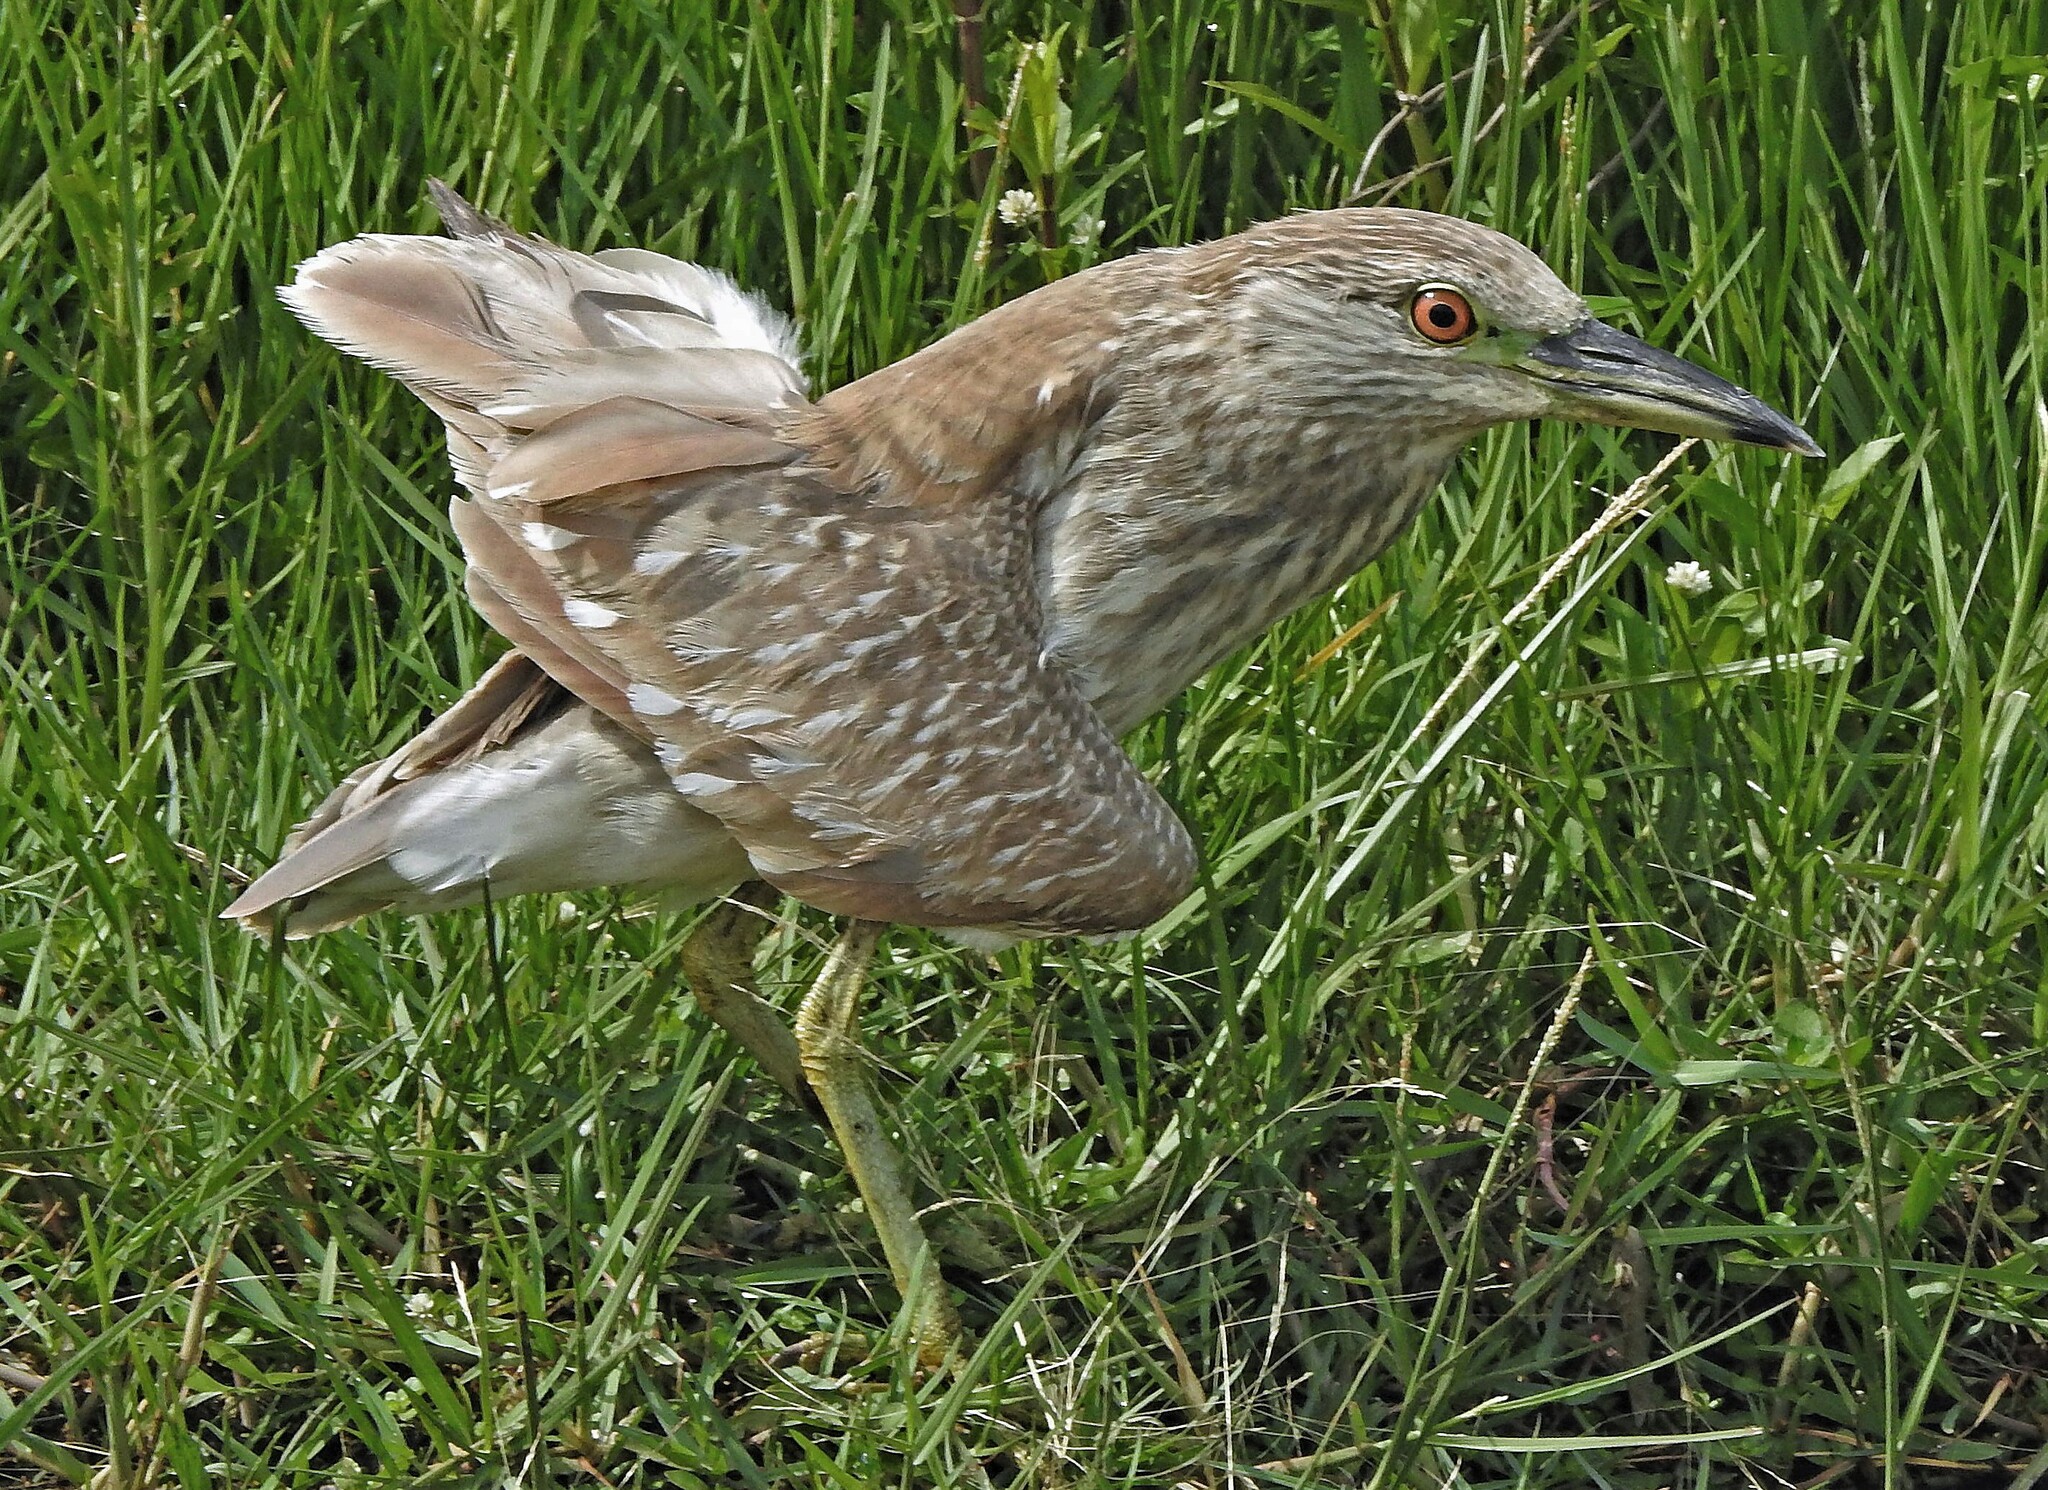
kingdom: Animalia
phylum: Chordata
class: Aves
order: Pelecaniformes
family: Ardeidae
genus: Nycticorax
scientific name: Nycticorax nycticorax
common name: Black-crowned night heron
